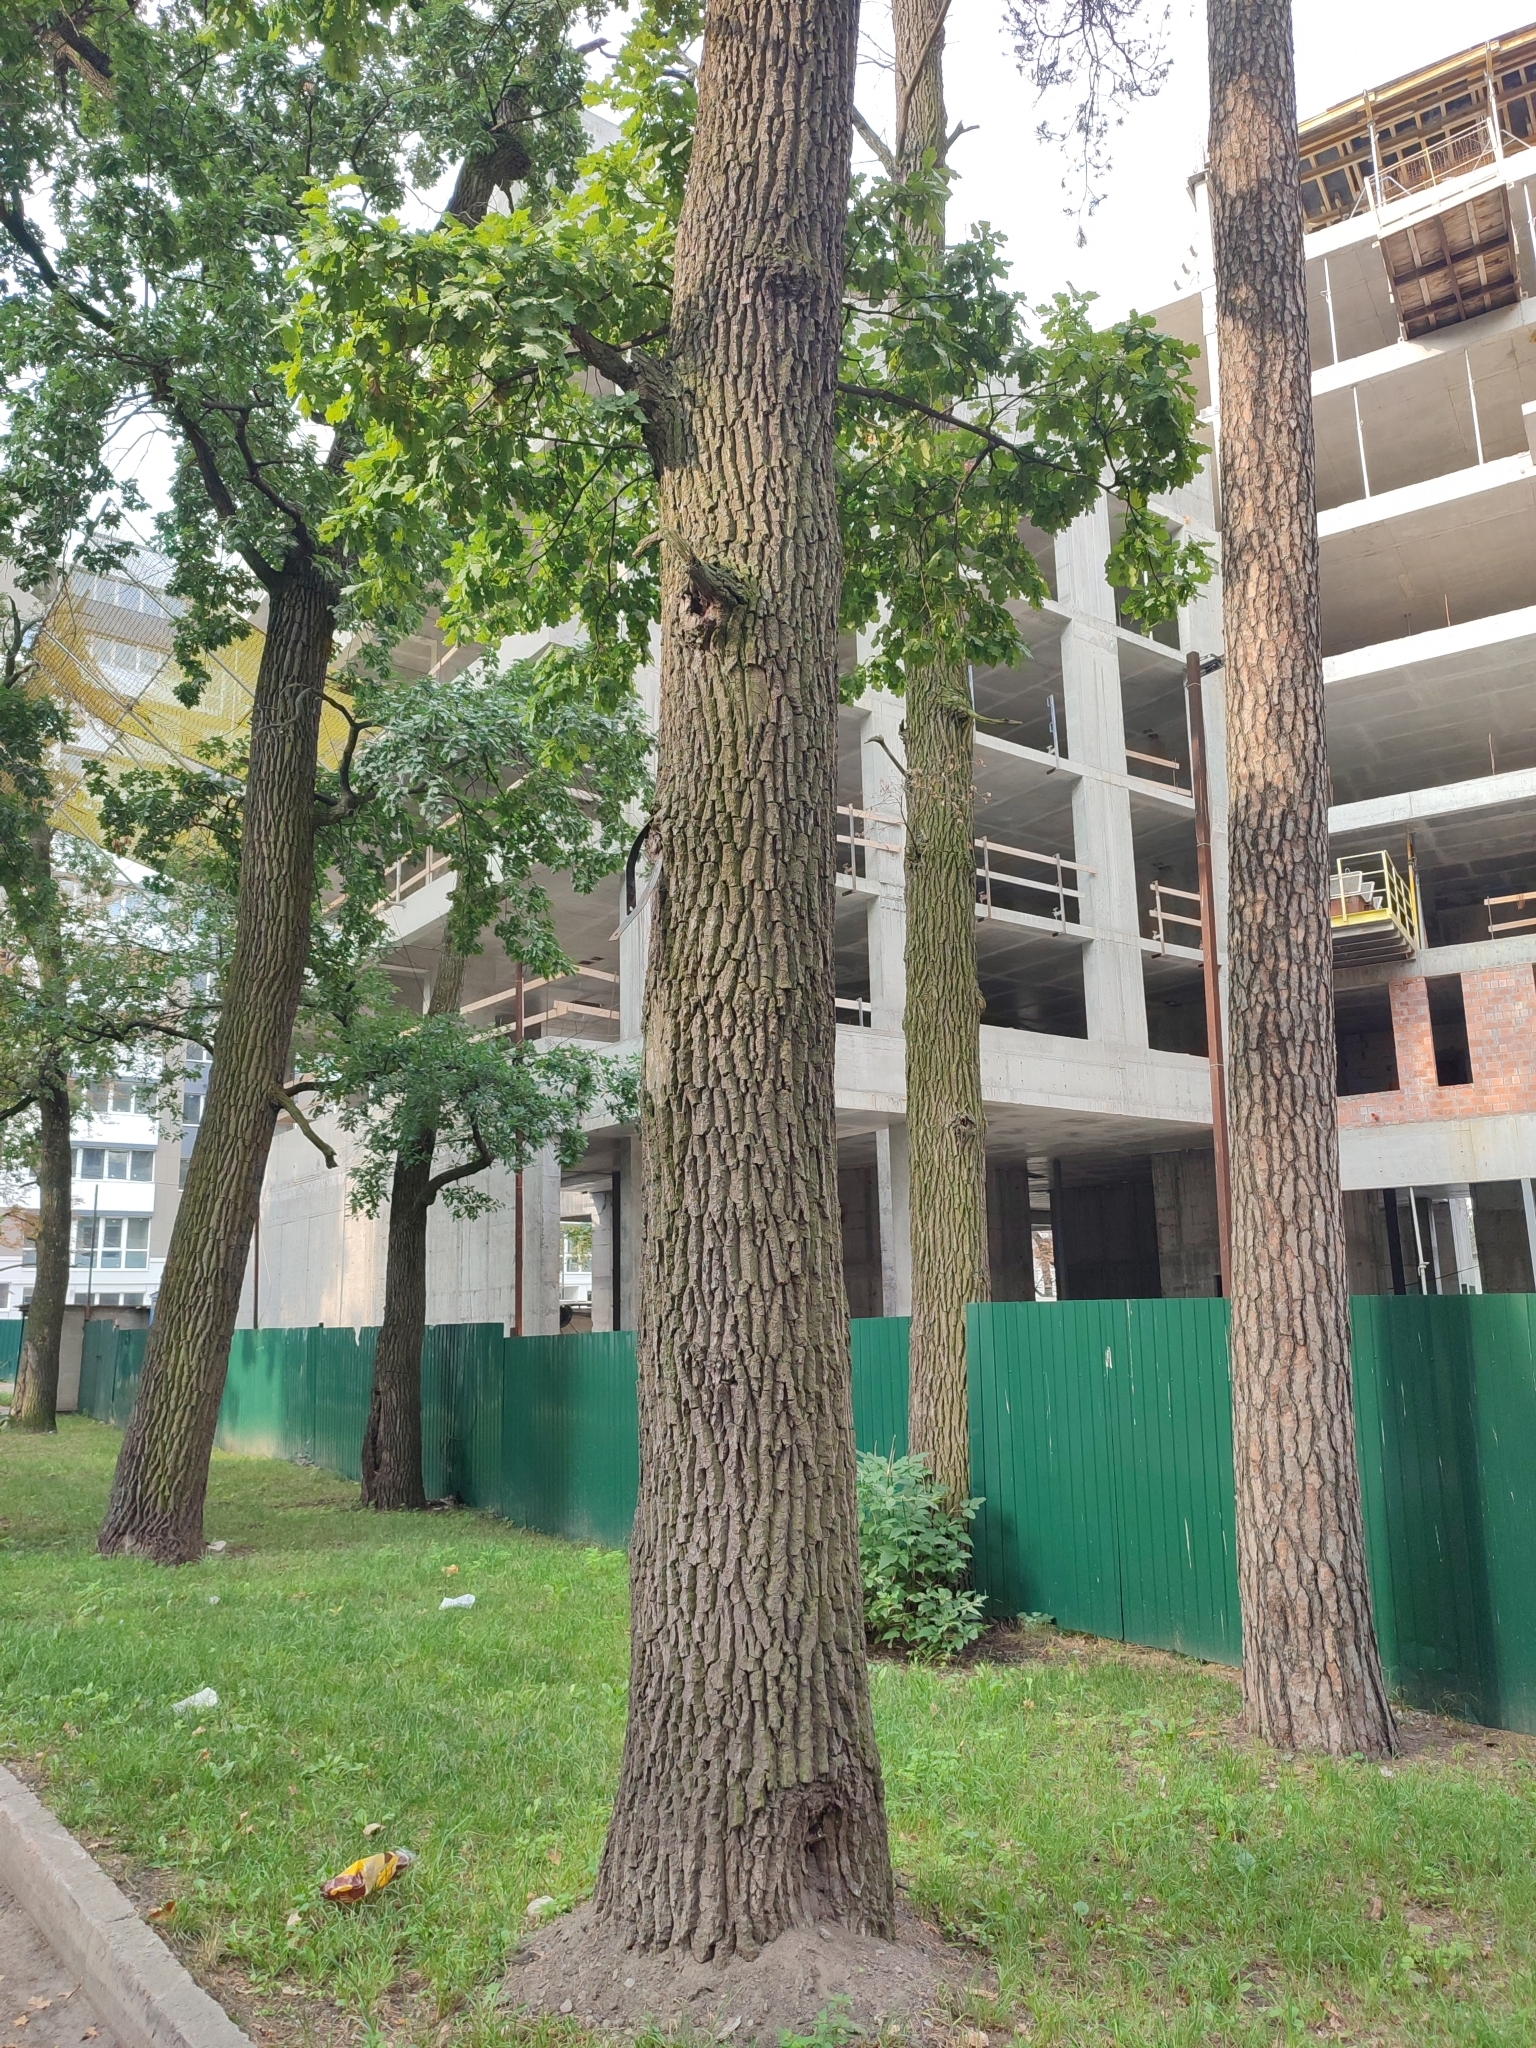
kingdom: Plantae
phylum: Tracheophyta
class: Magnoliopsida
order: Fagales
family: Fagaceae
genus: Quercus
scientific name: Quercus robur
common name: Pedunculate oak
